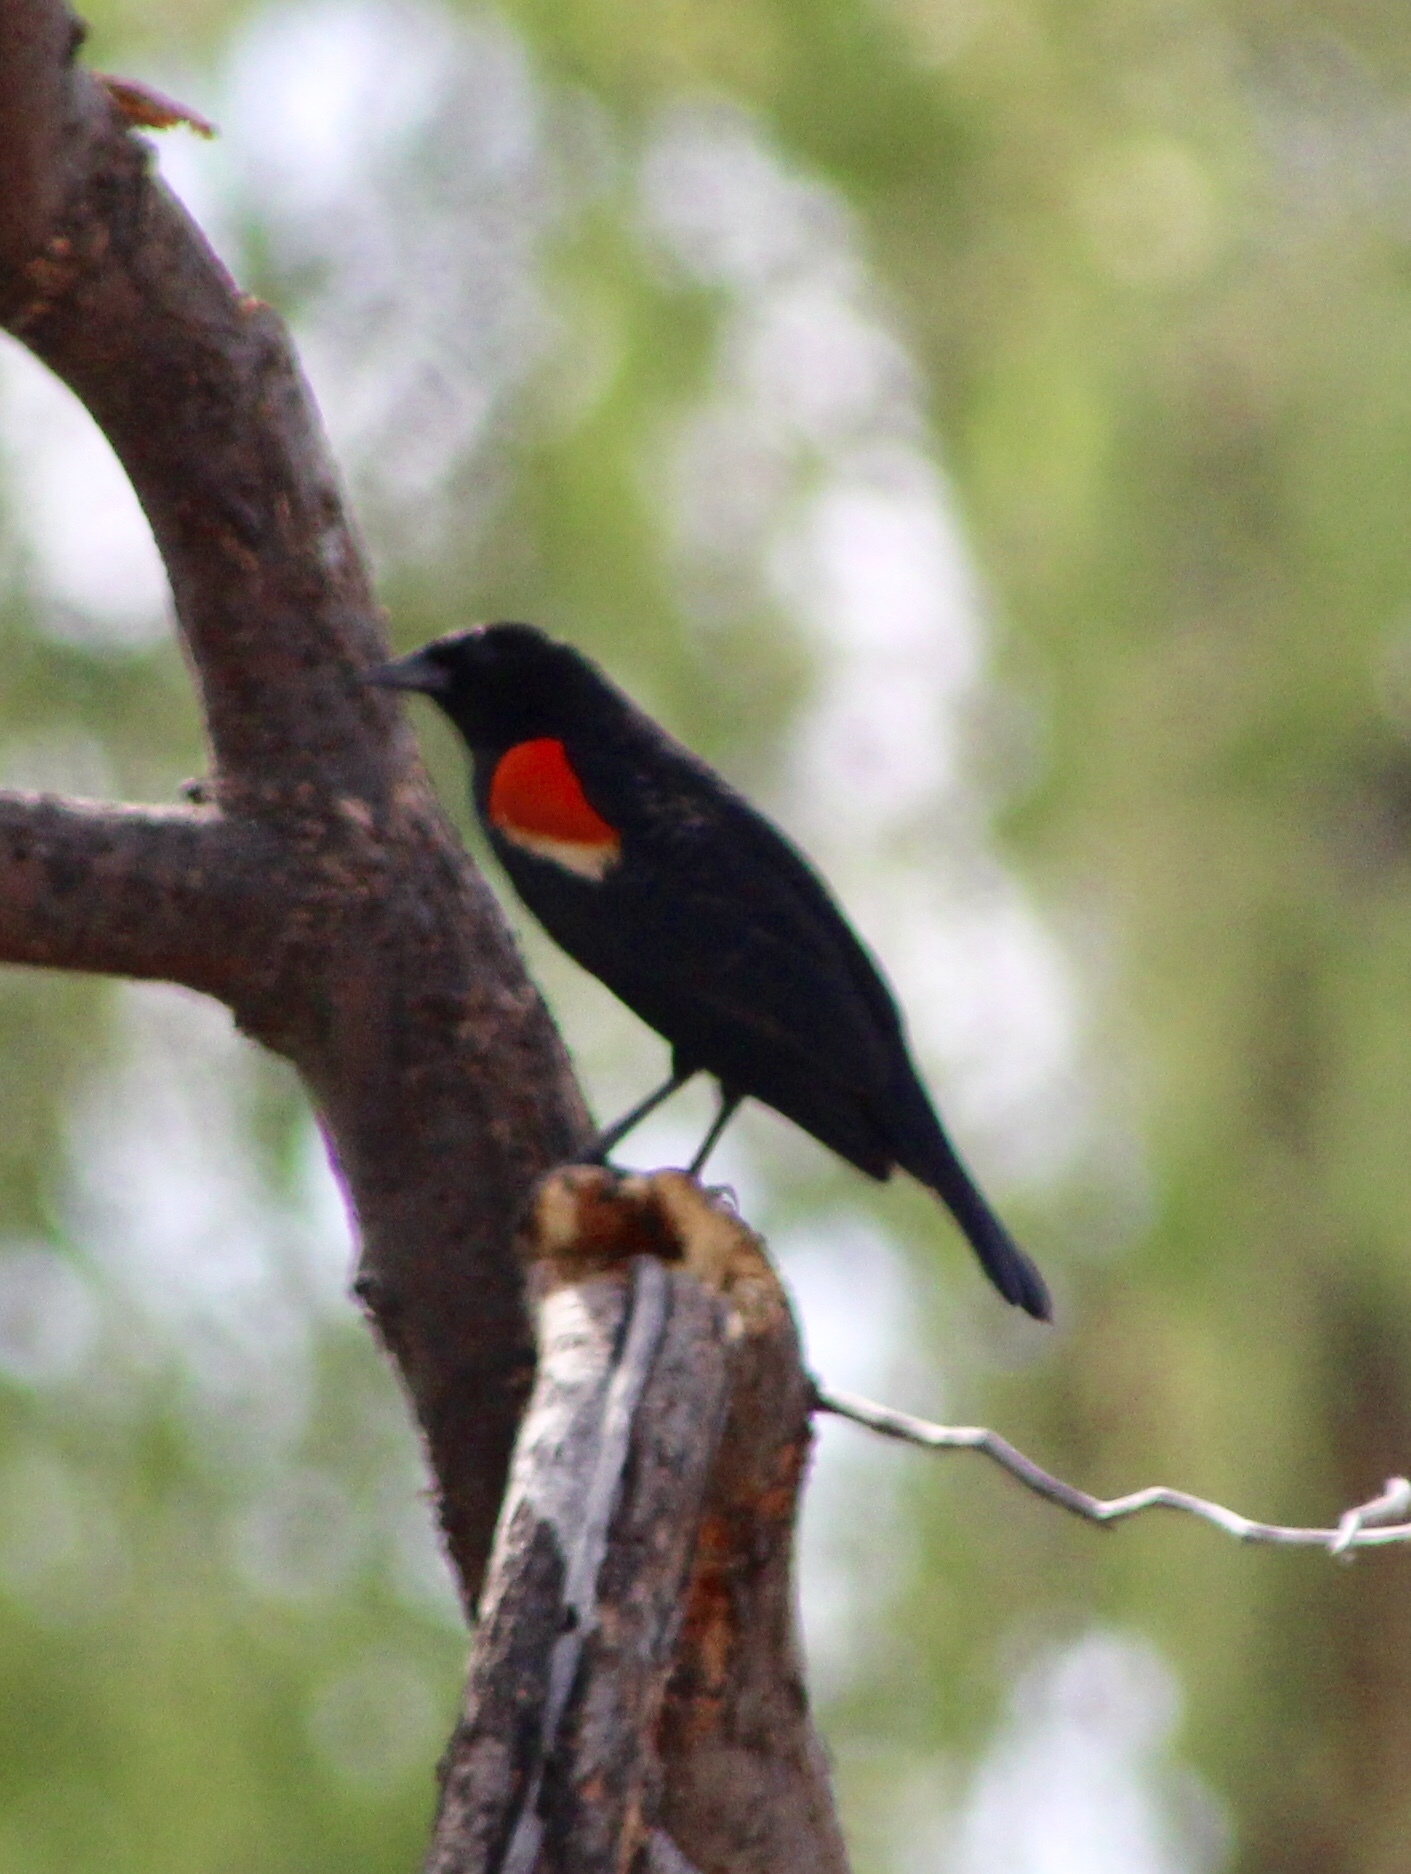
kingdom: Animalia
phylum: Chordata
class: Aves
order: Passeriformes
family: Icteridae
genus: Agelaius
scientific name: Agelaius phoeniceus
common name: Red-winged blackbird
